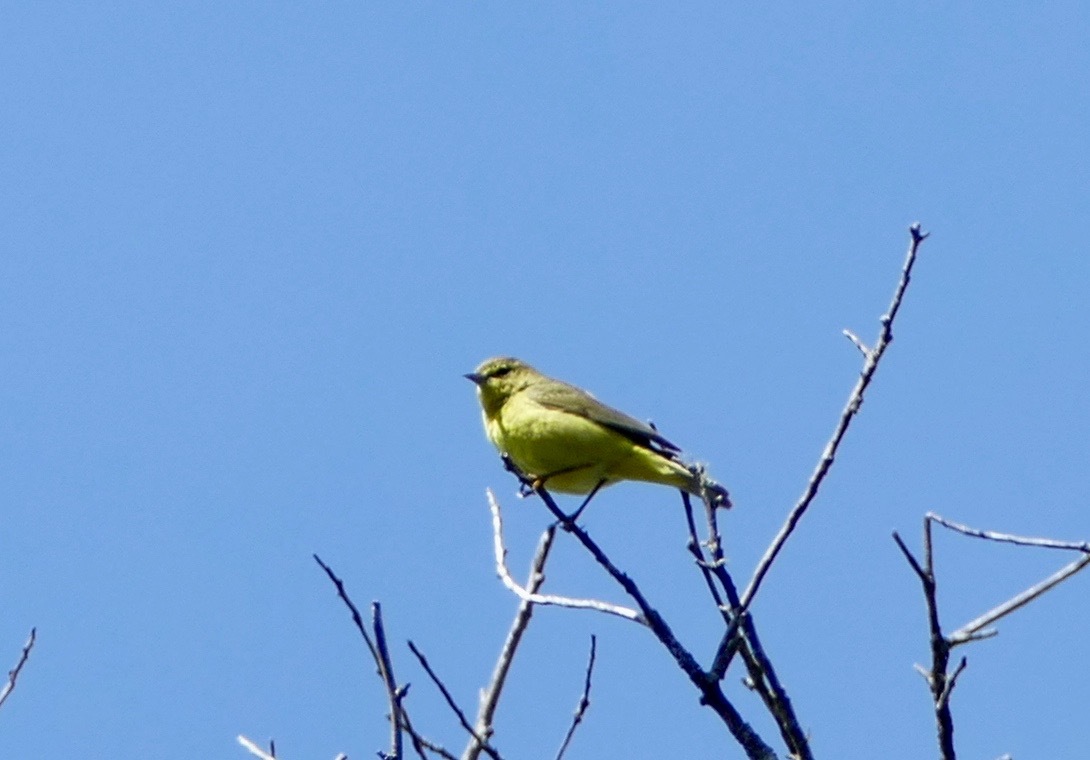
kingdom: Animalia
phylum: Chordata
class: Aves
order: Passeriformes
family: Parulidae
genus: Leiothlypis
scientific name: Leiothlypis celata
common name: Orange-crowned warbler
